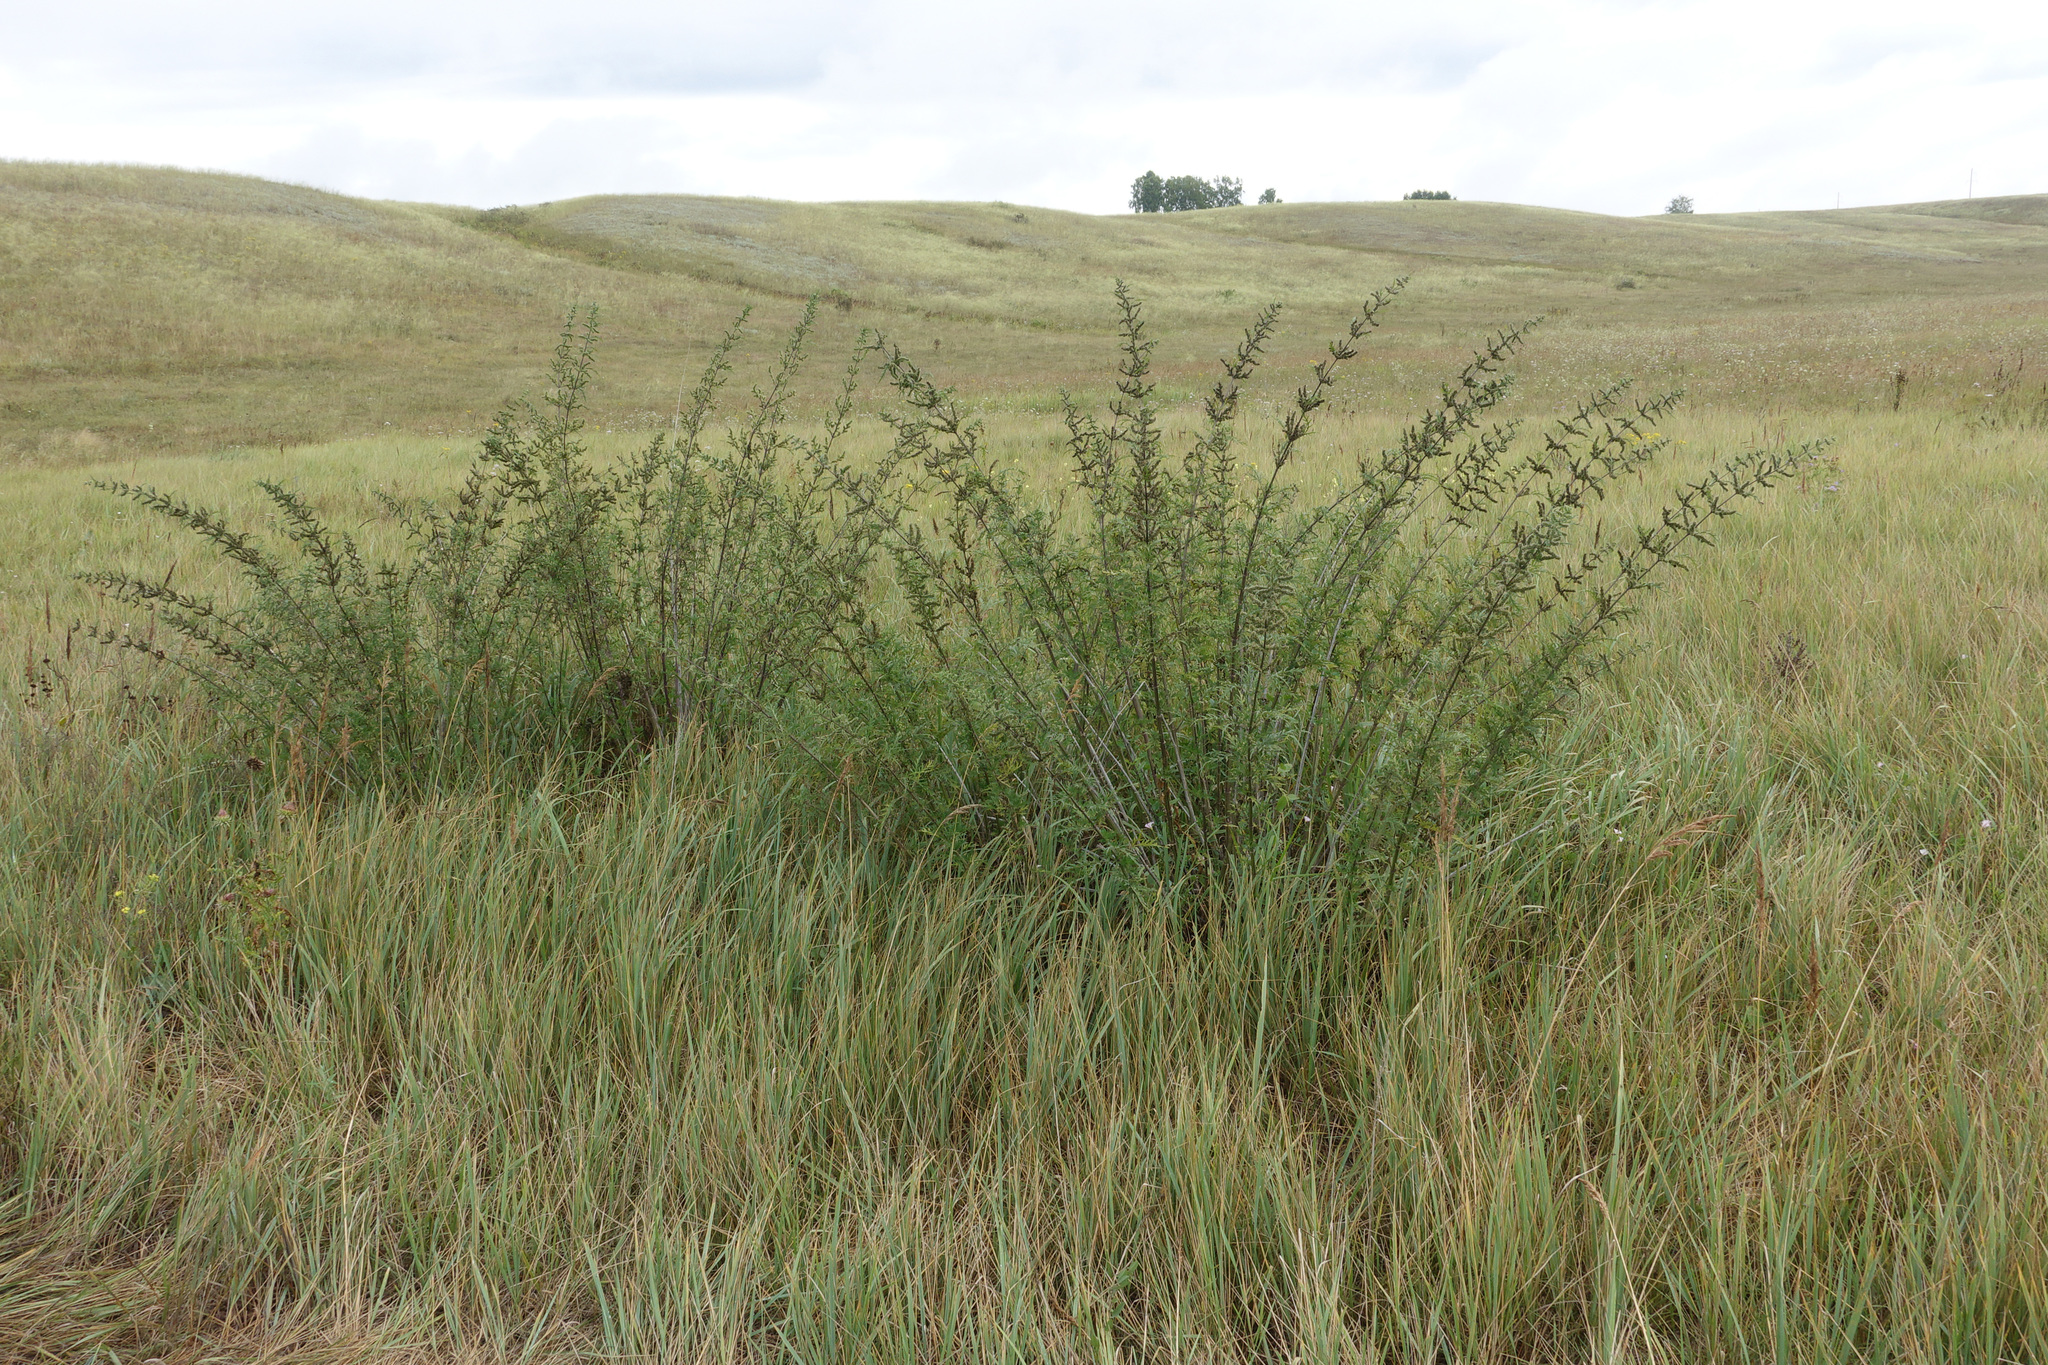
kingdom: Plantae
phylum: Tracheophyta
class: Magnoliopsida
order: Rosales
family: Urticaceae
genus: Urtica
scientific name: Urtica cannabina
